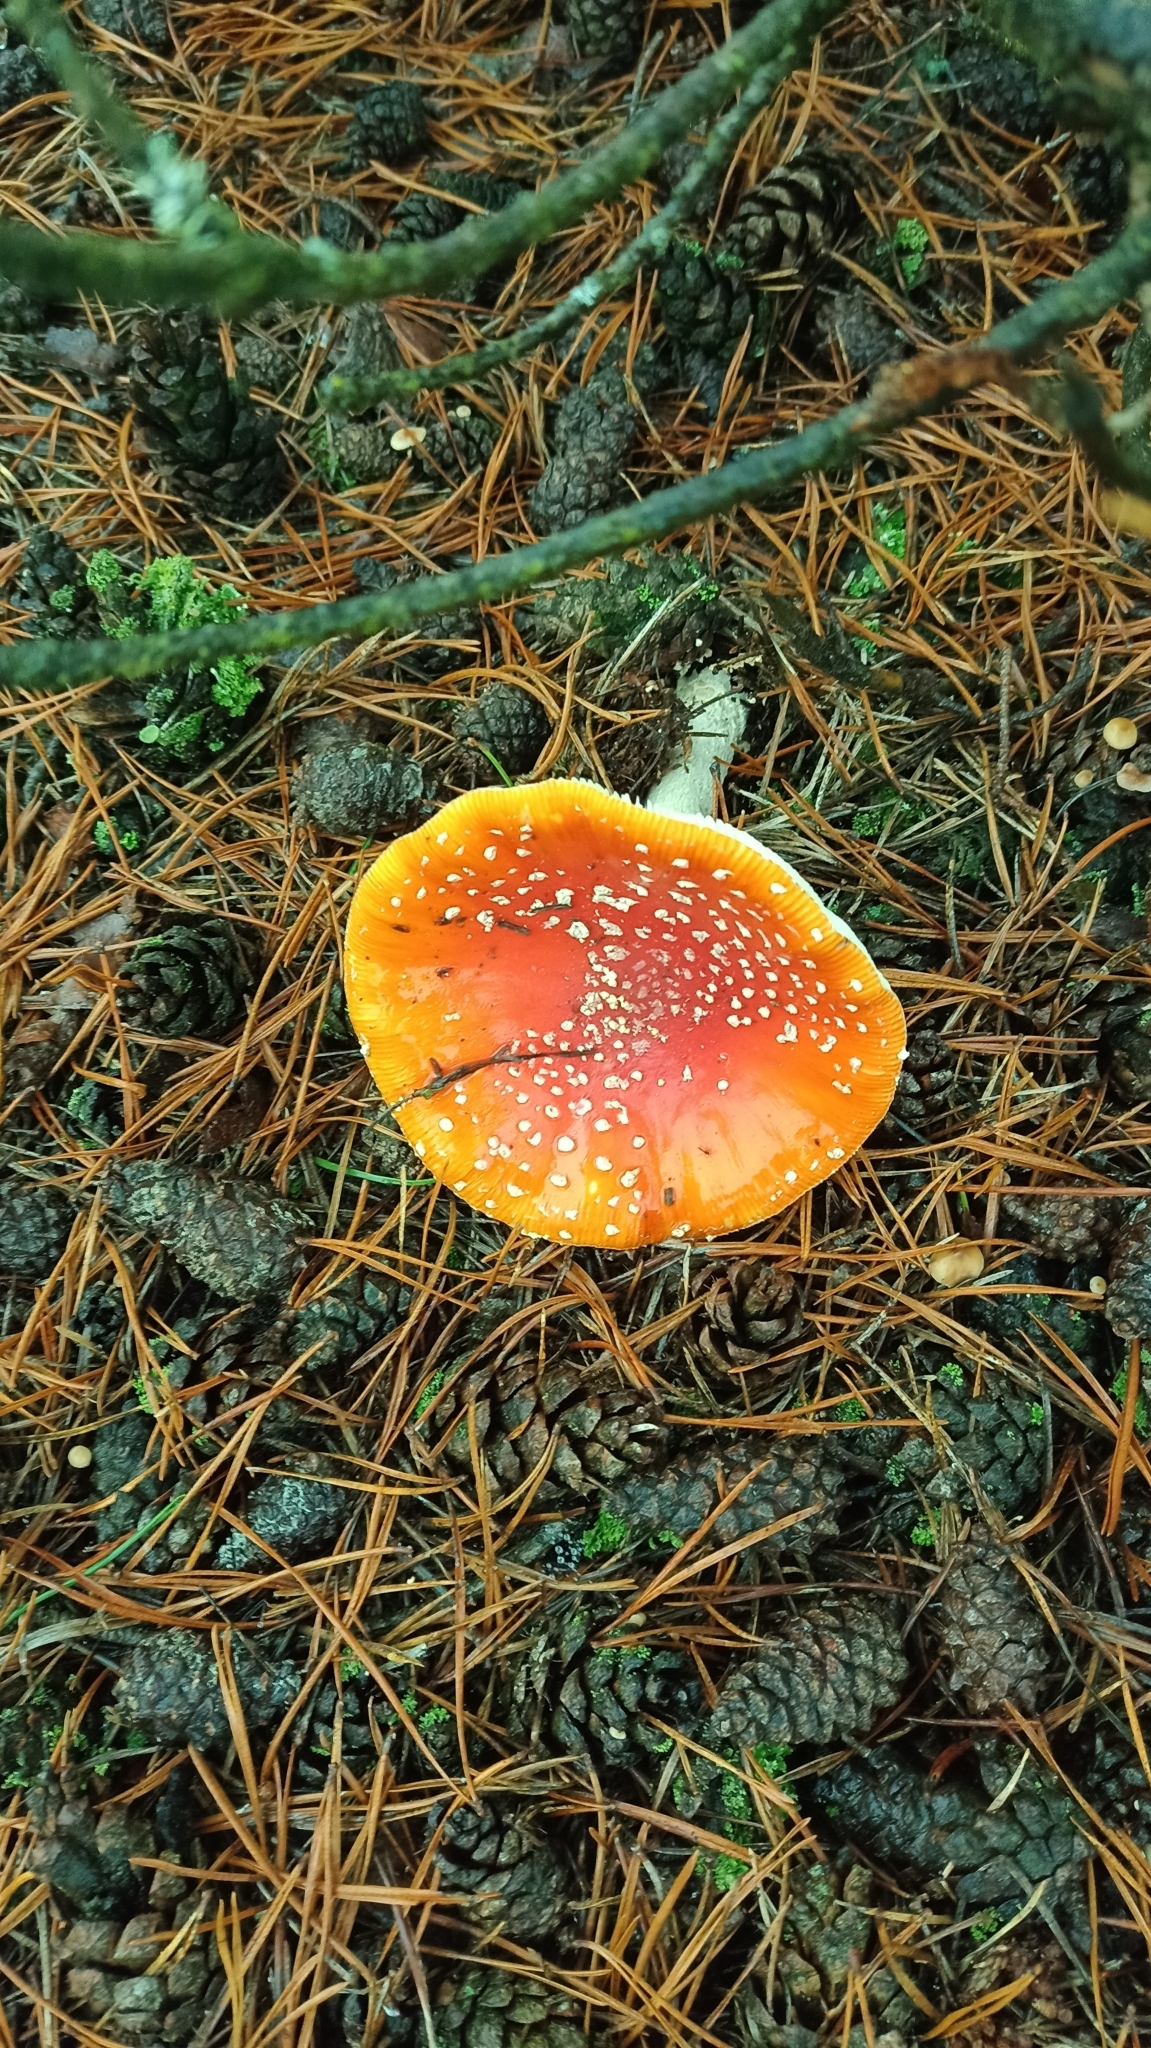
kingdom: Fungi
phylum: Basidiomycota
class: Agaricomycetes
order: Agaricales
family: Amanitaceae
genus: Amanita
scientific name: Amanita muscaria
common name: Fly agaric
